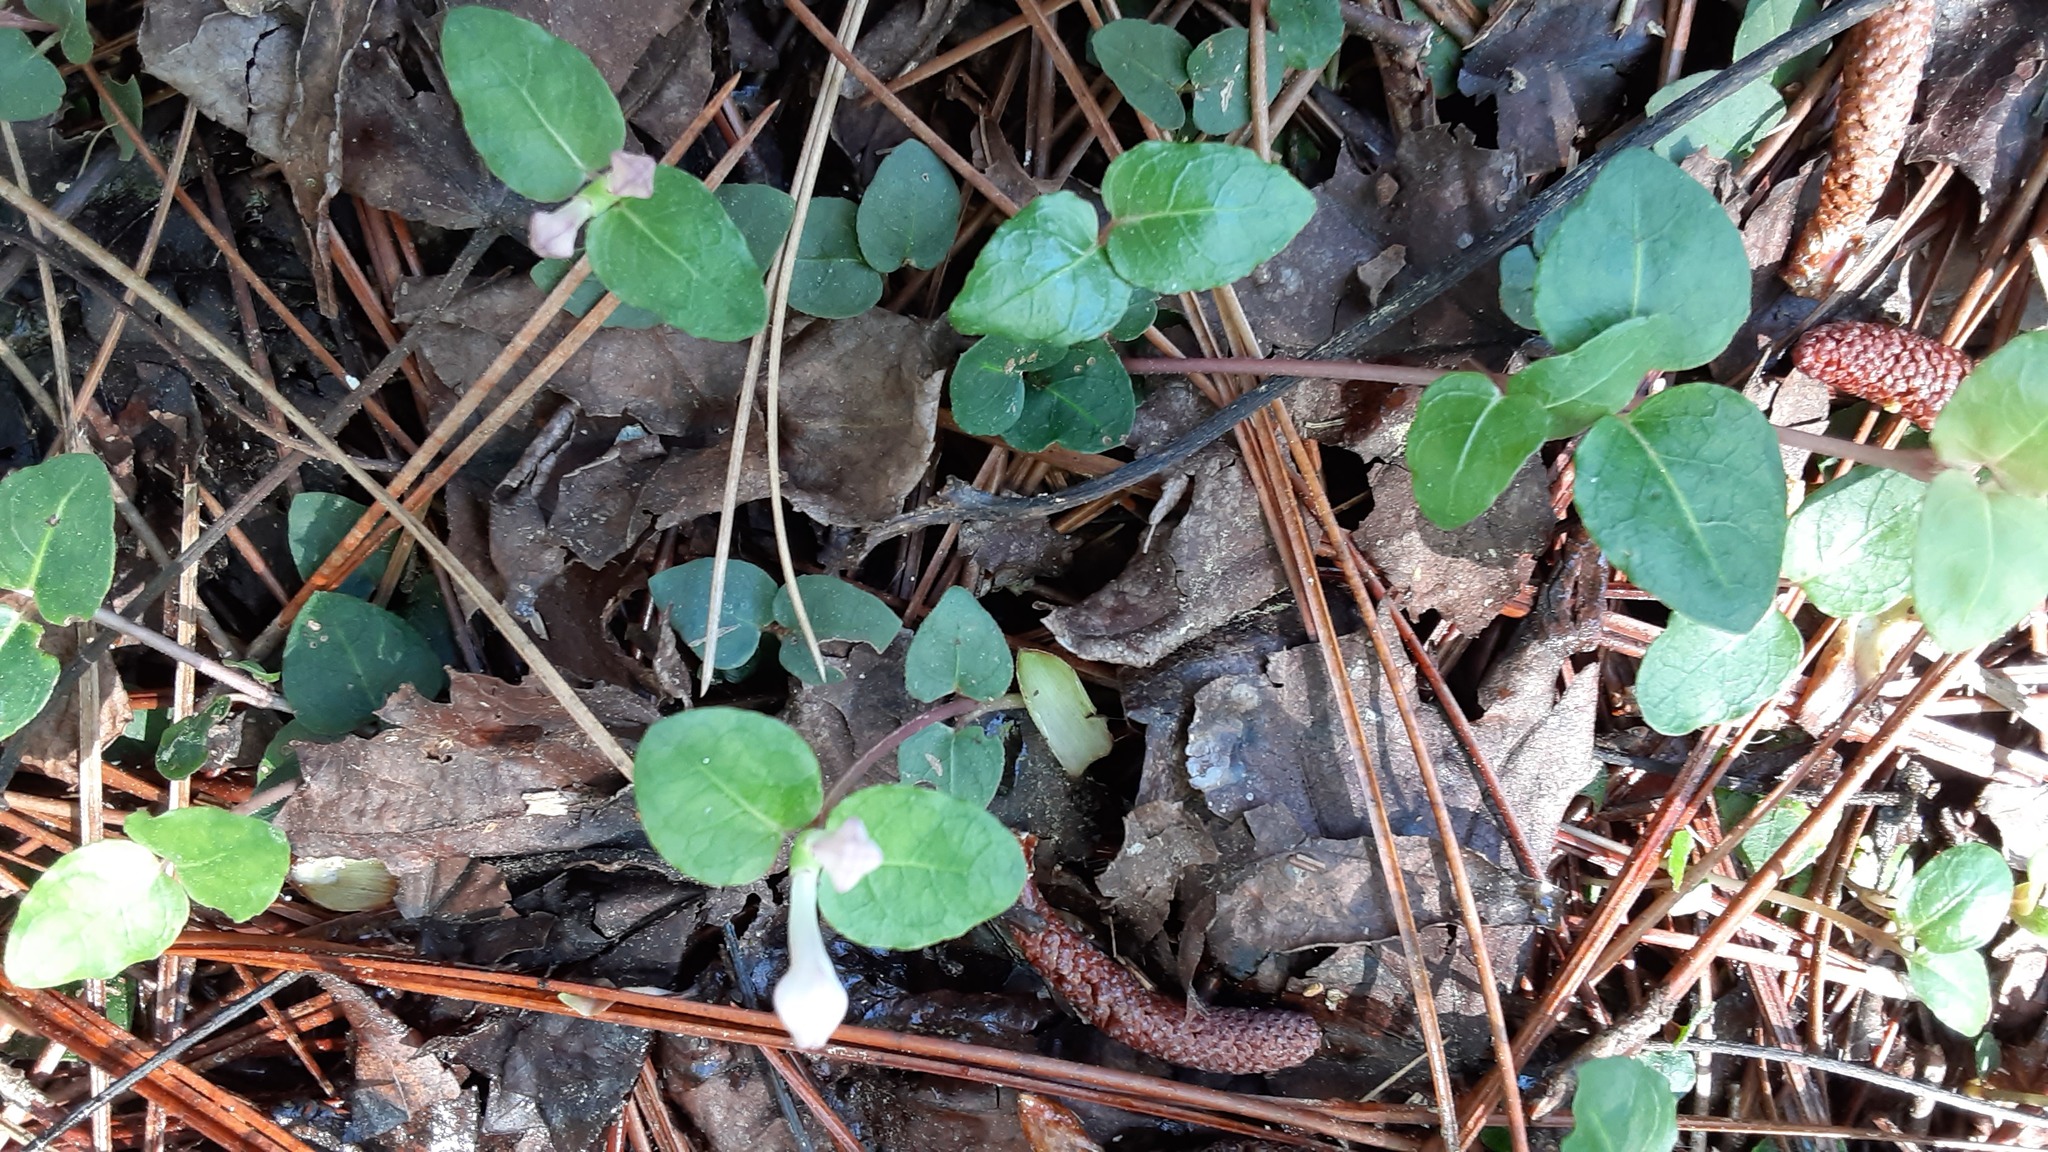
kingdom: Plantae
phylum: Tracheophyta
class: Magnoliopsida
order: Gentianales
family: Rubiaceae
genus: Mitchella
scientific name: Mitchella repens
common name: Partridge-berry
